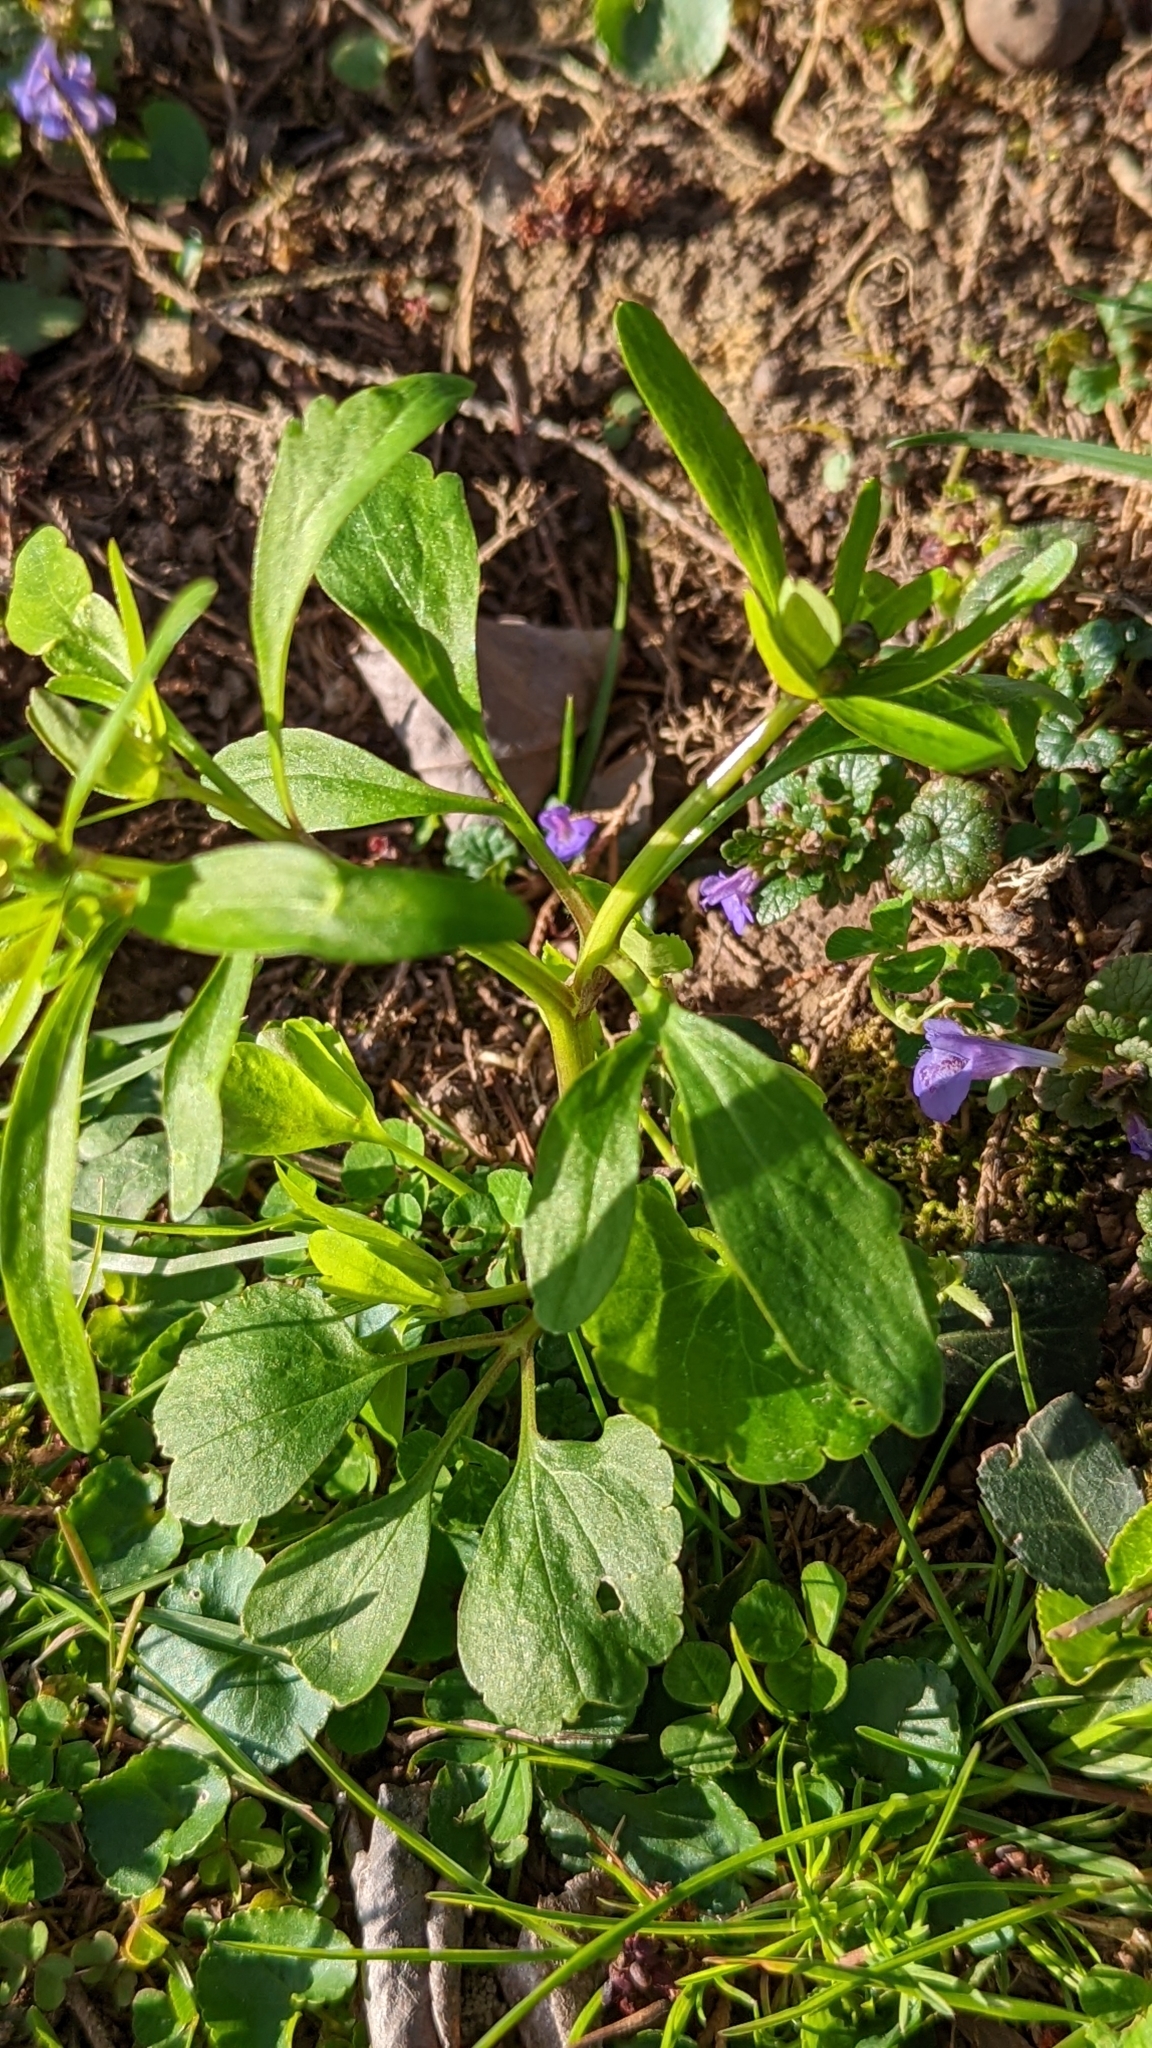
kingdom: Plantae
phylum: Tracheophyta
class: Magnoliopsida
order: Ranunculales
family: Ranunculaceae
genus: Ranunculus
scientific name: Ranunculus abortivus
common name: Early wood buttercup
